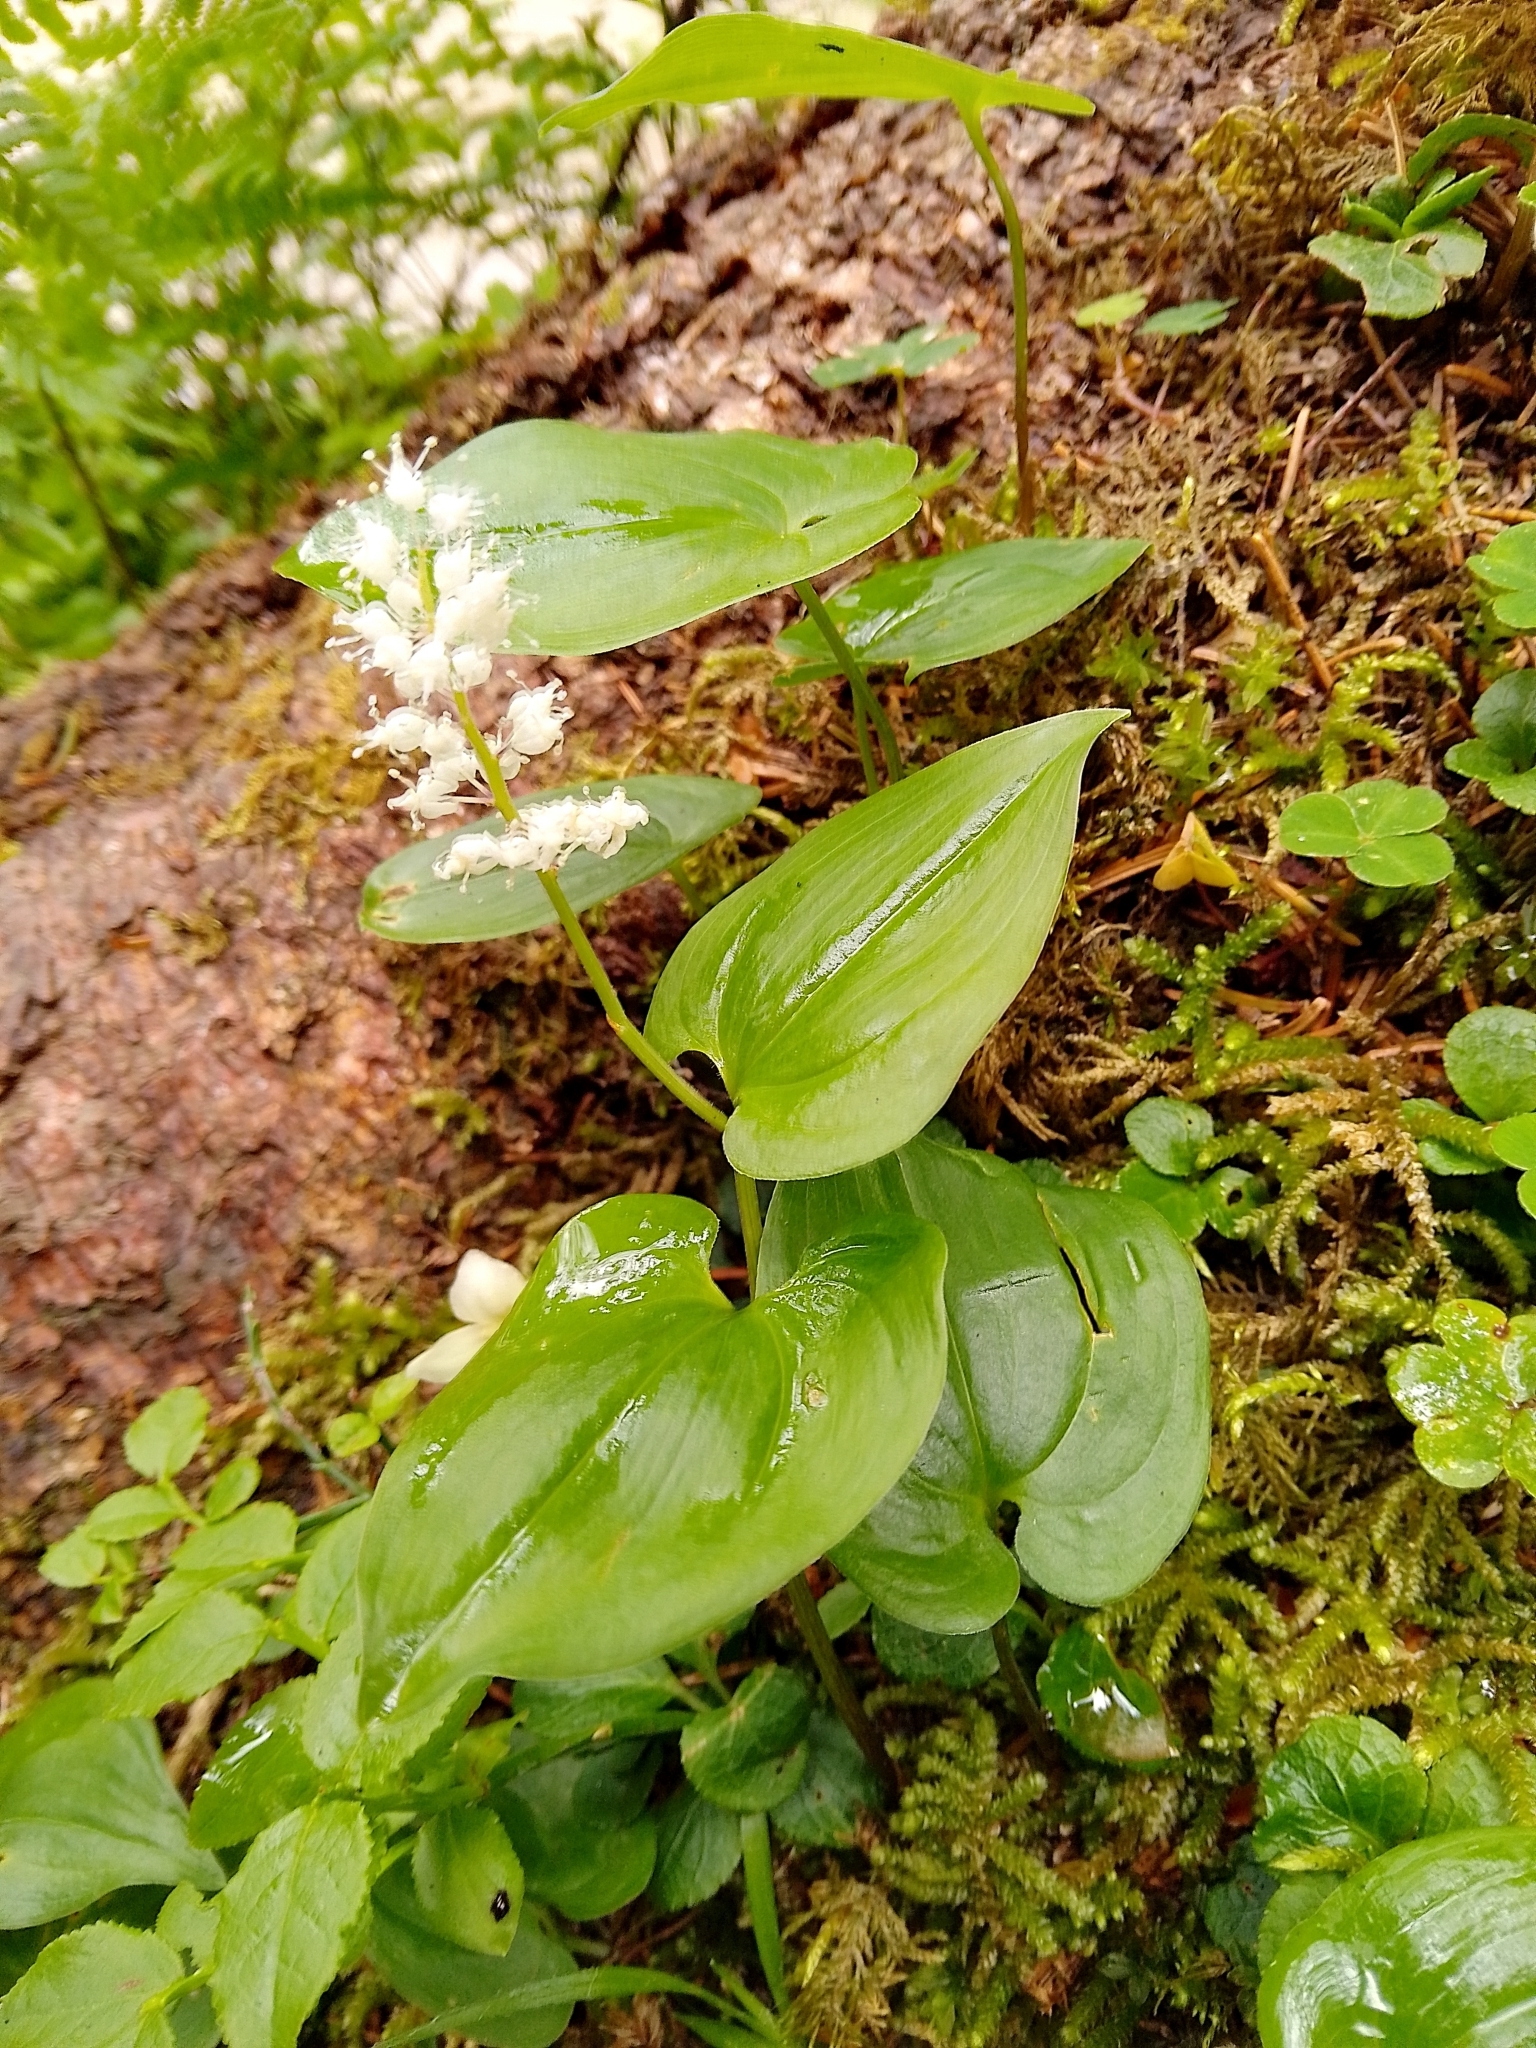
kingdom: Plantae
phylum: Tracheophyta
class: Liliopsida
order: Asparagales
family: Asparagaceae
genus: Maianthemum
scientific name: Maianthemum bifolium
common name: May lily
